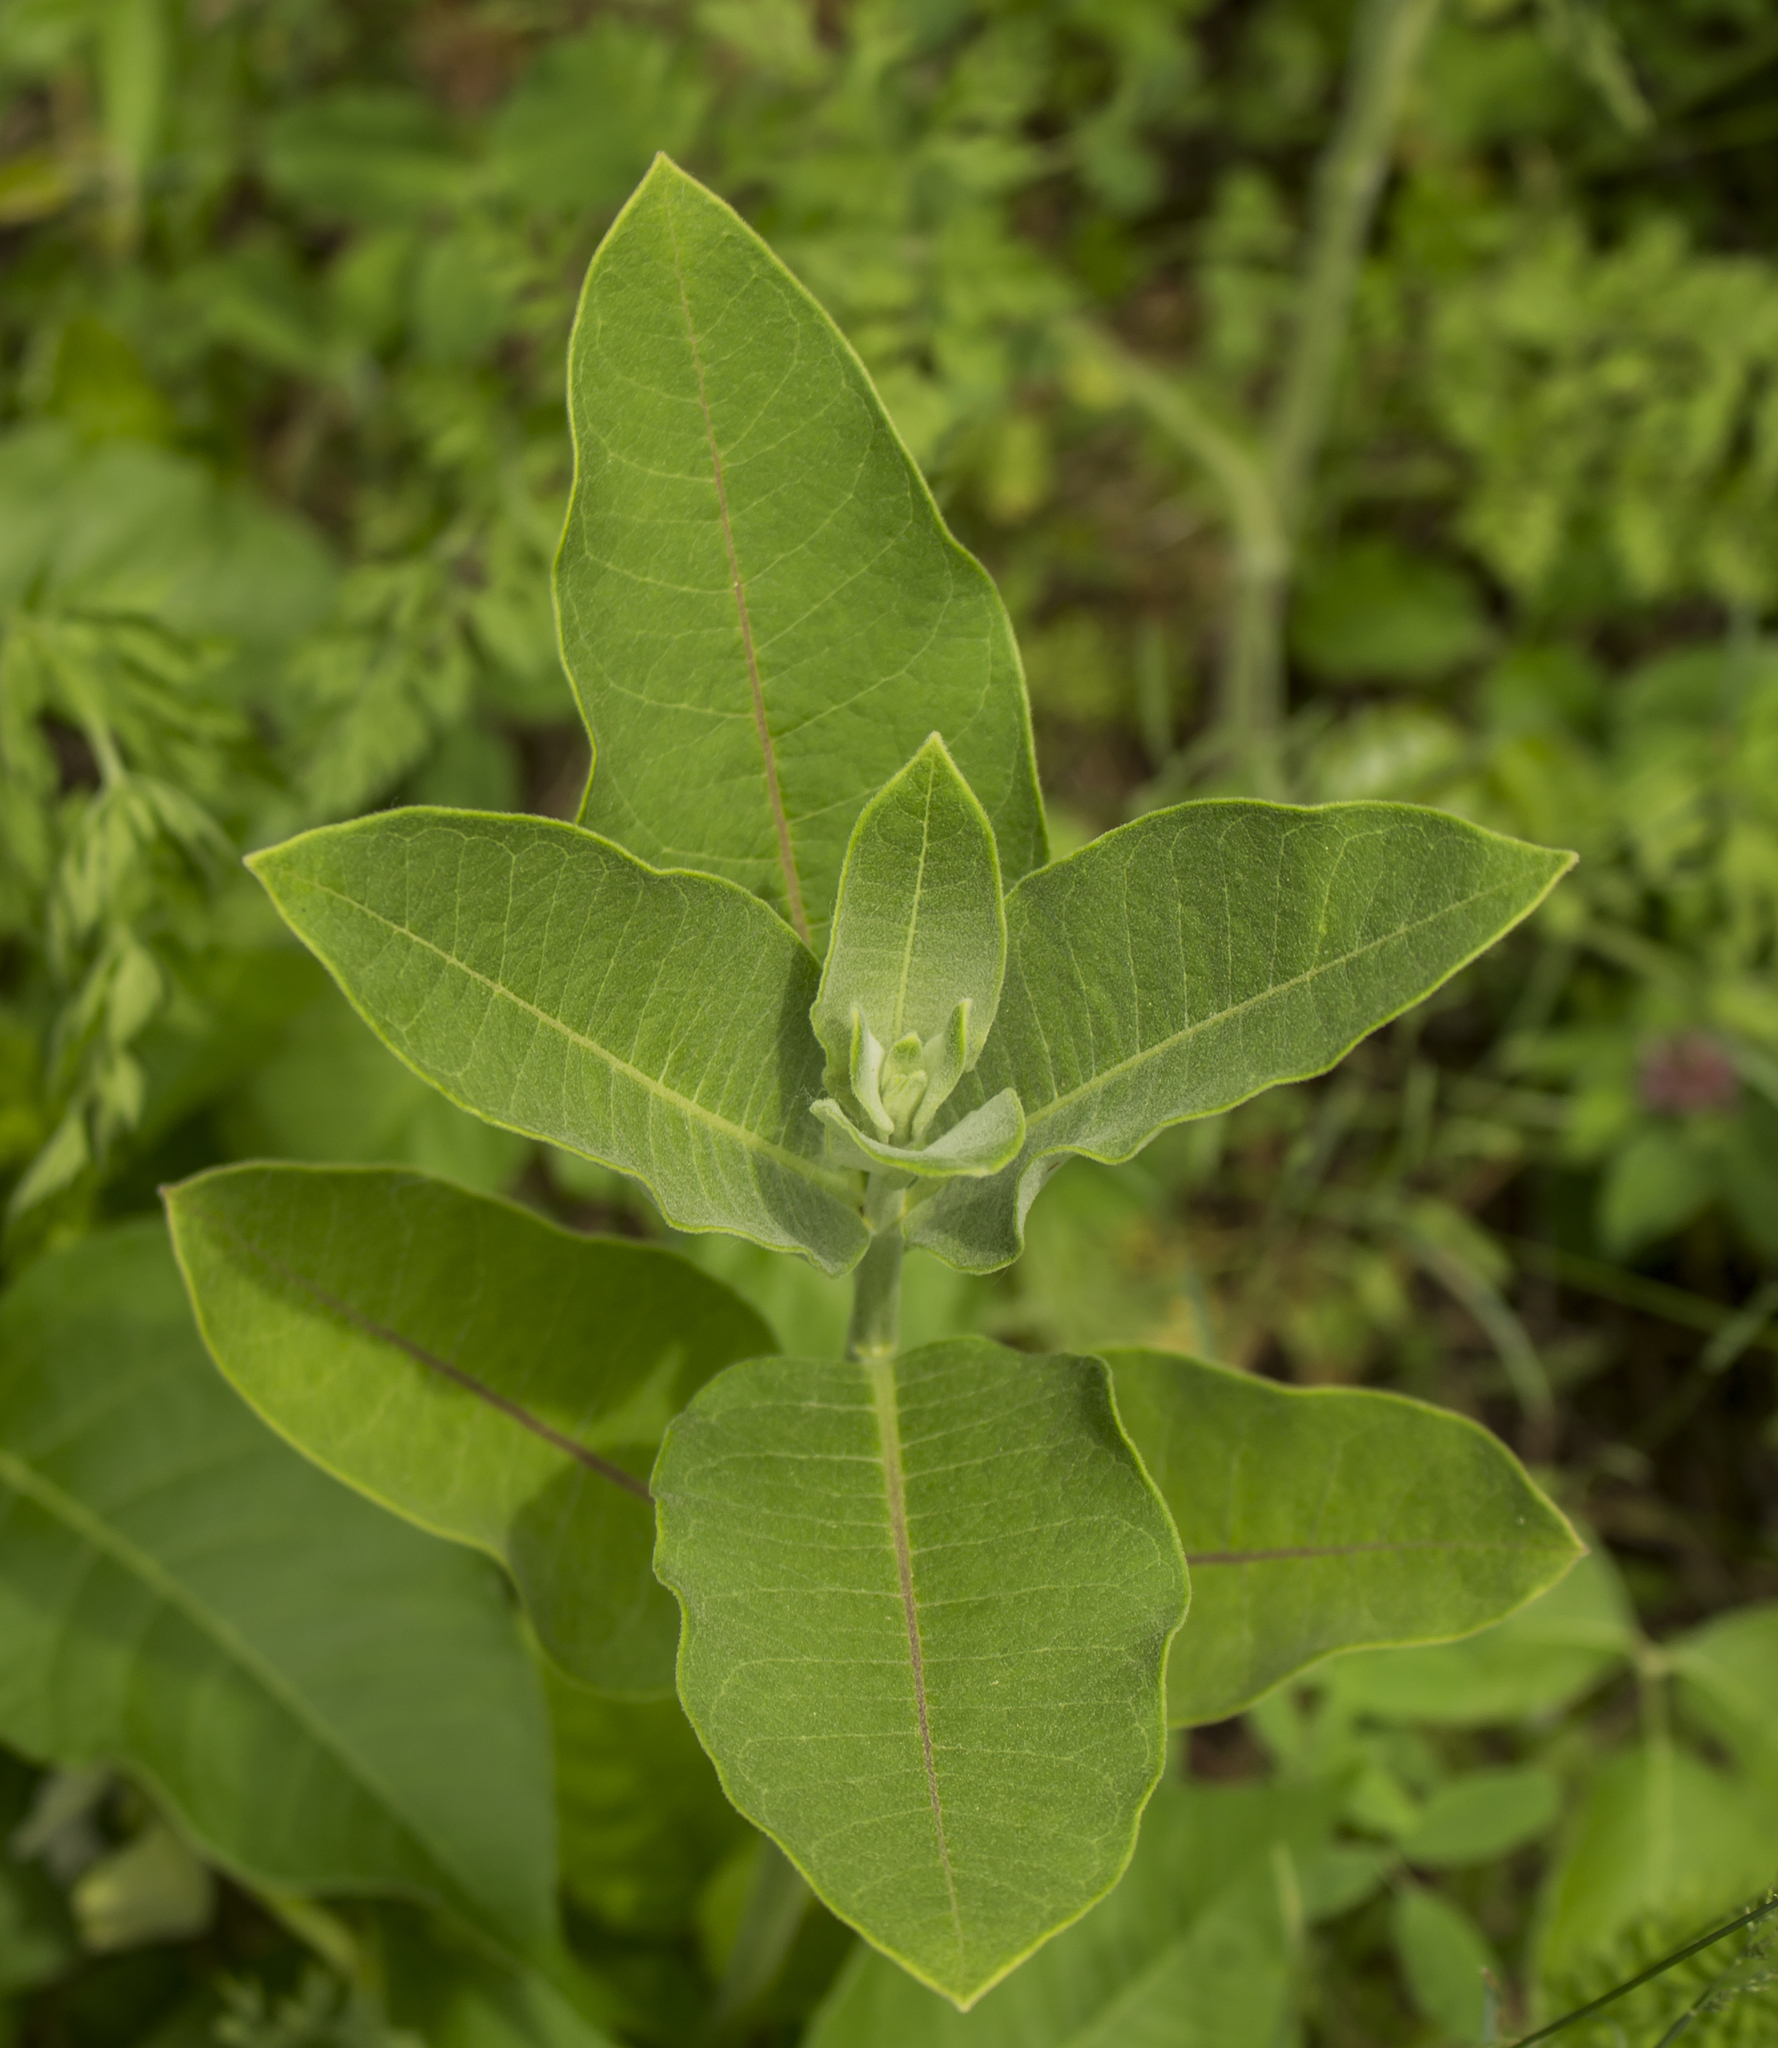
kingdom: Plantae
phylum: Tracheophyta
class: Magnoliopsida
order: Gentianales
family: Apocynaceae
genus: Asclepias
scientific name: Asclepias syriaca
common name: Common milkweed
